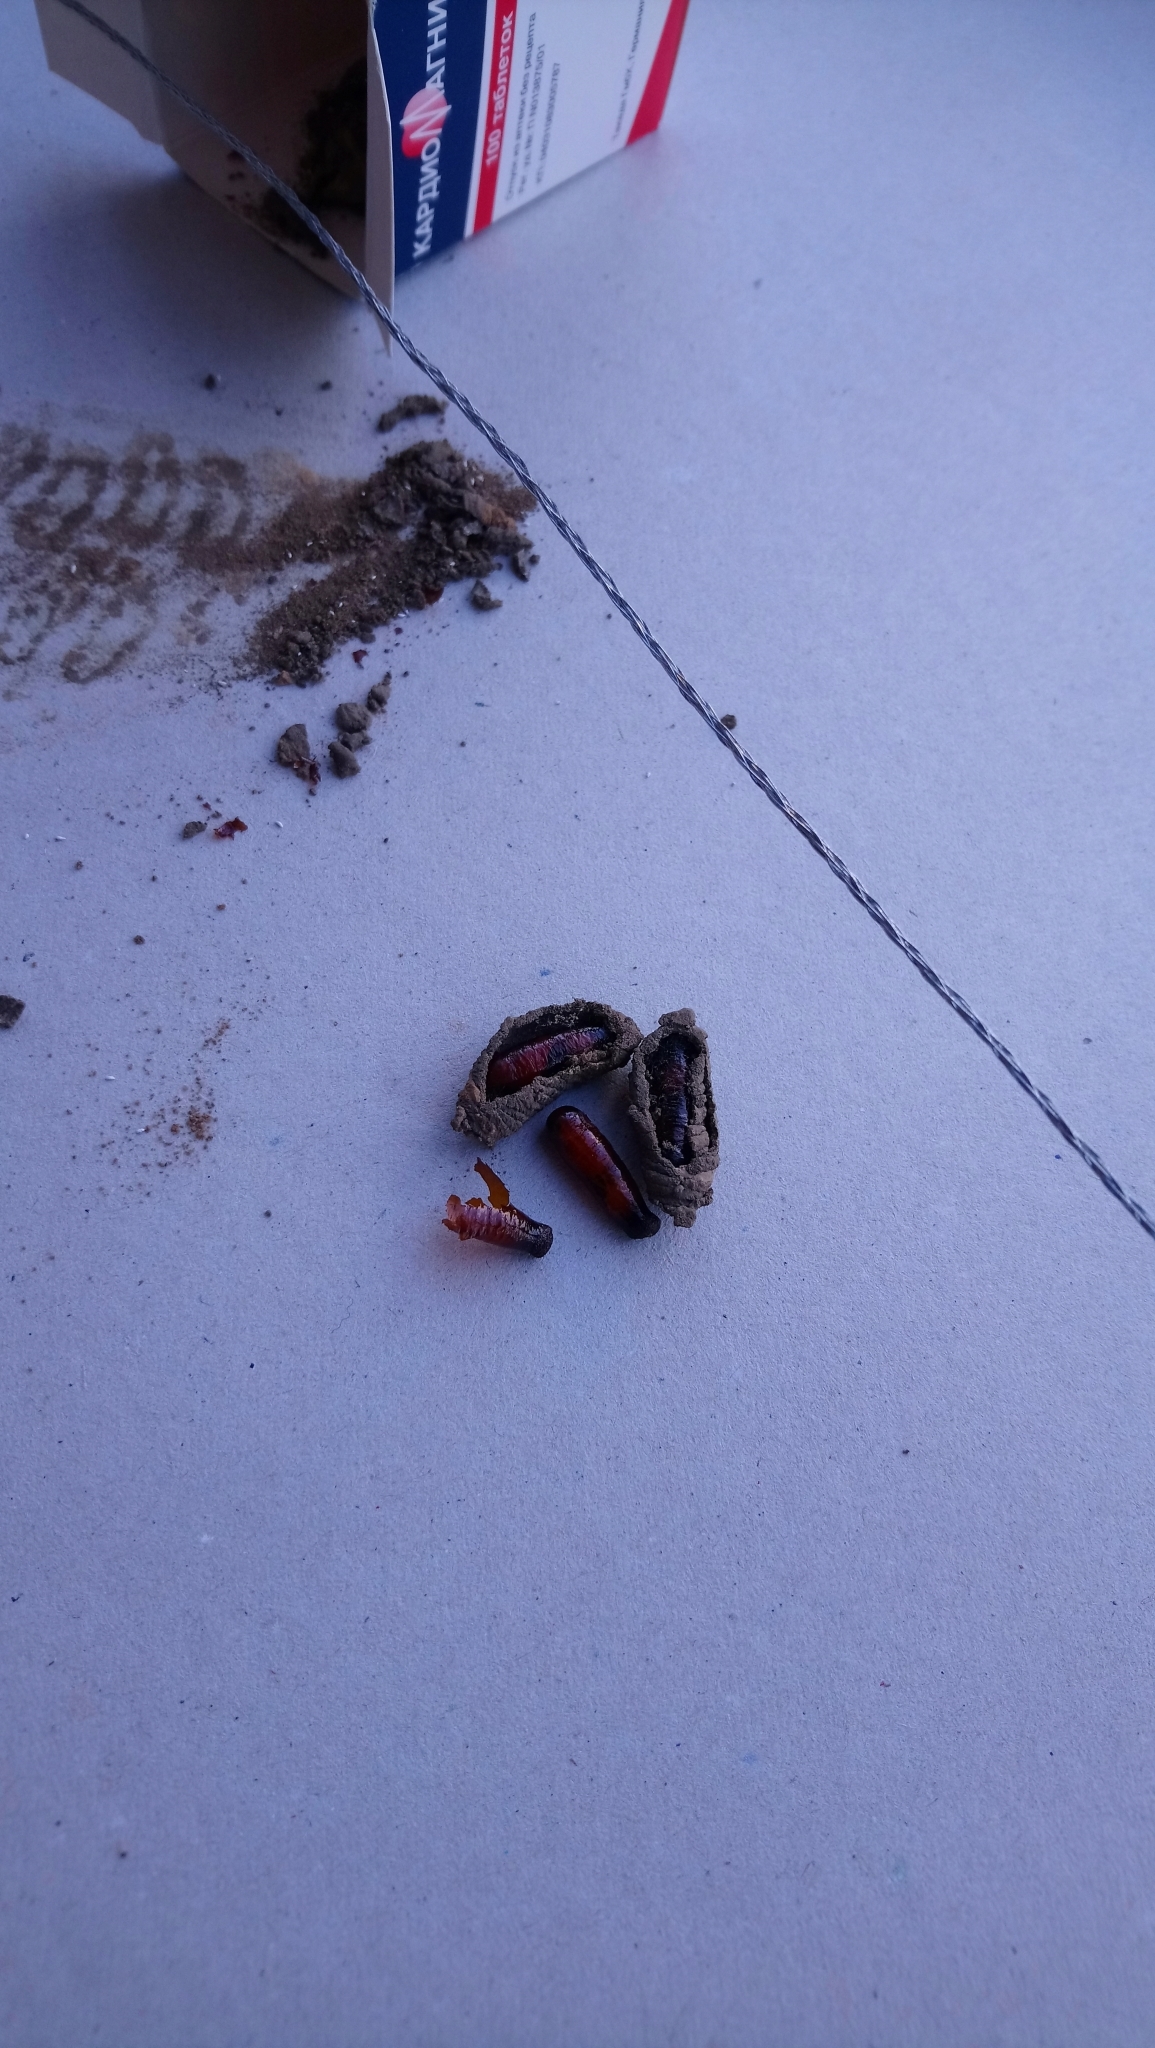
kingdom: Animalia
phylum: Arthropoda
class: Insecta
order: Hymenoptera
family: Sphecidae
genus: Sceliphron
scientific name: Sceliphron curvatum
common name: Pèlopèe
